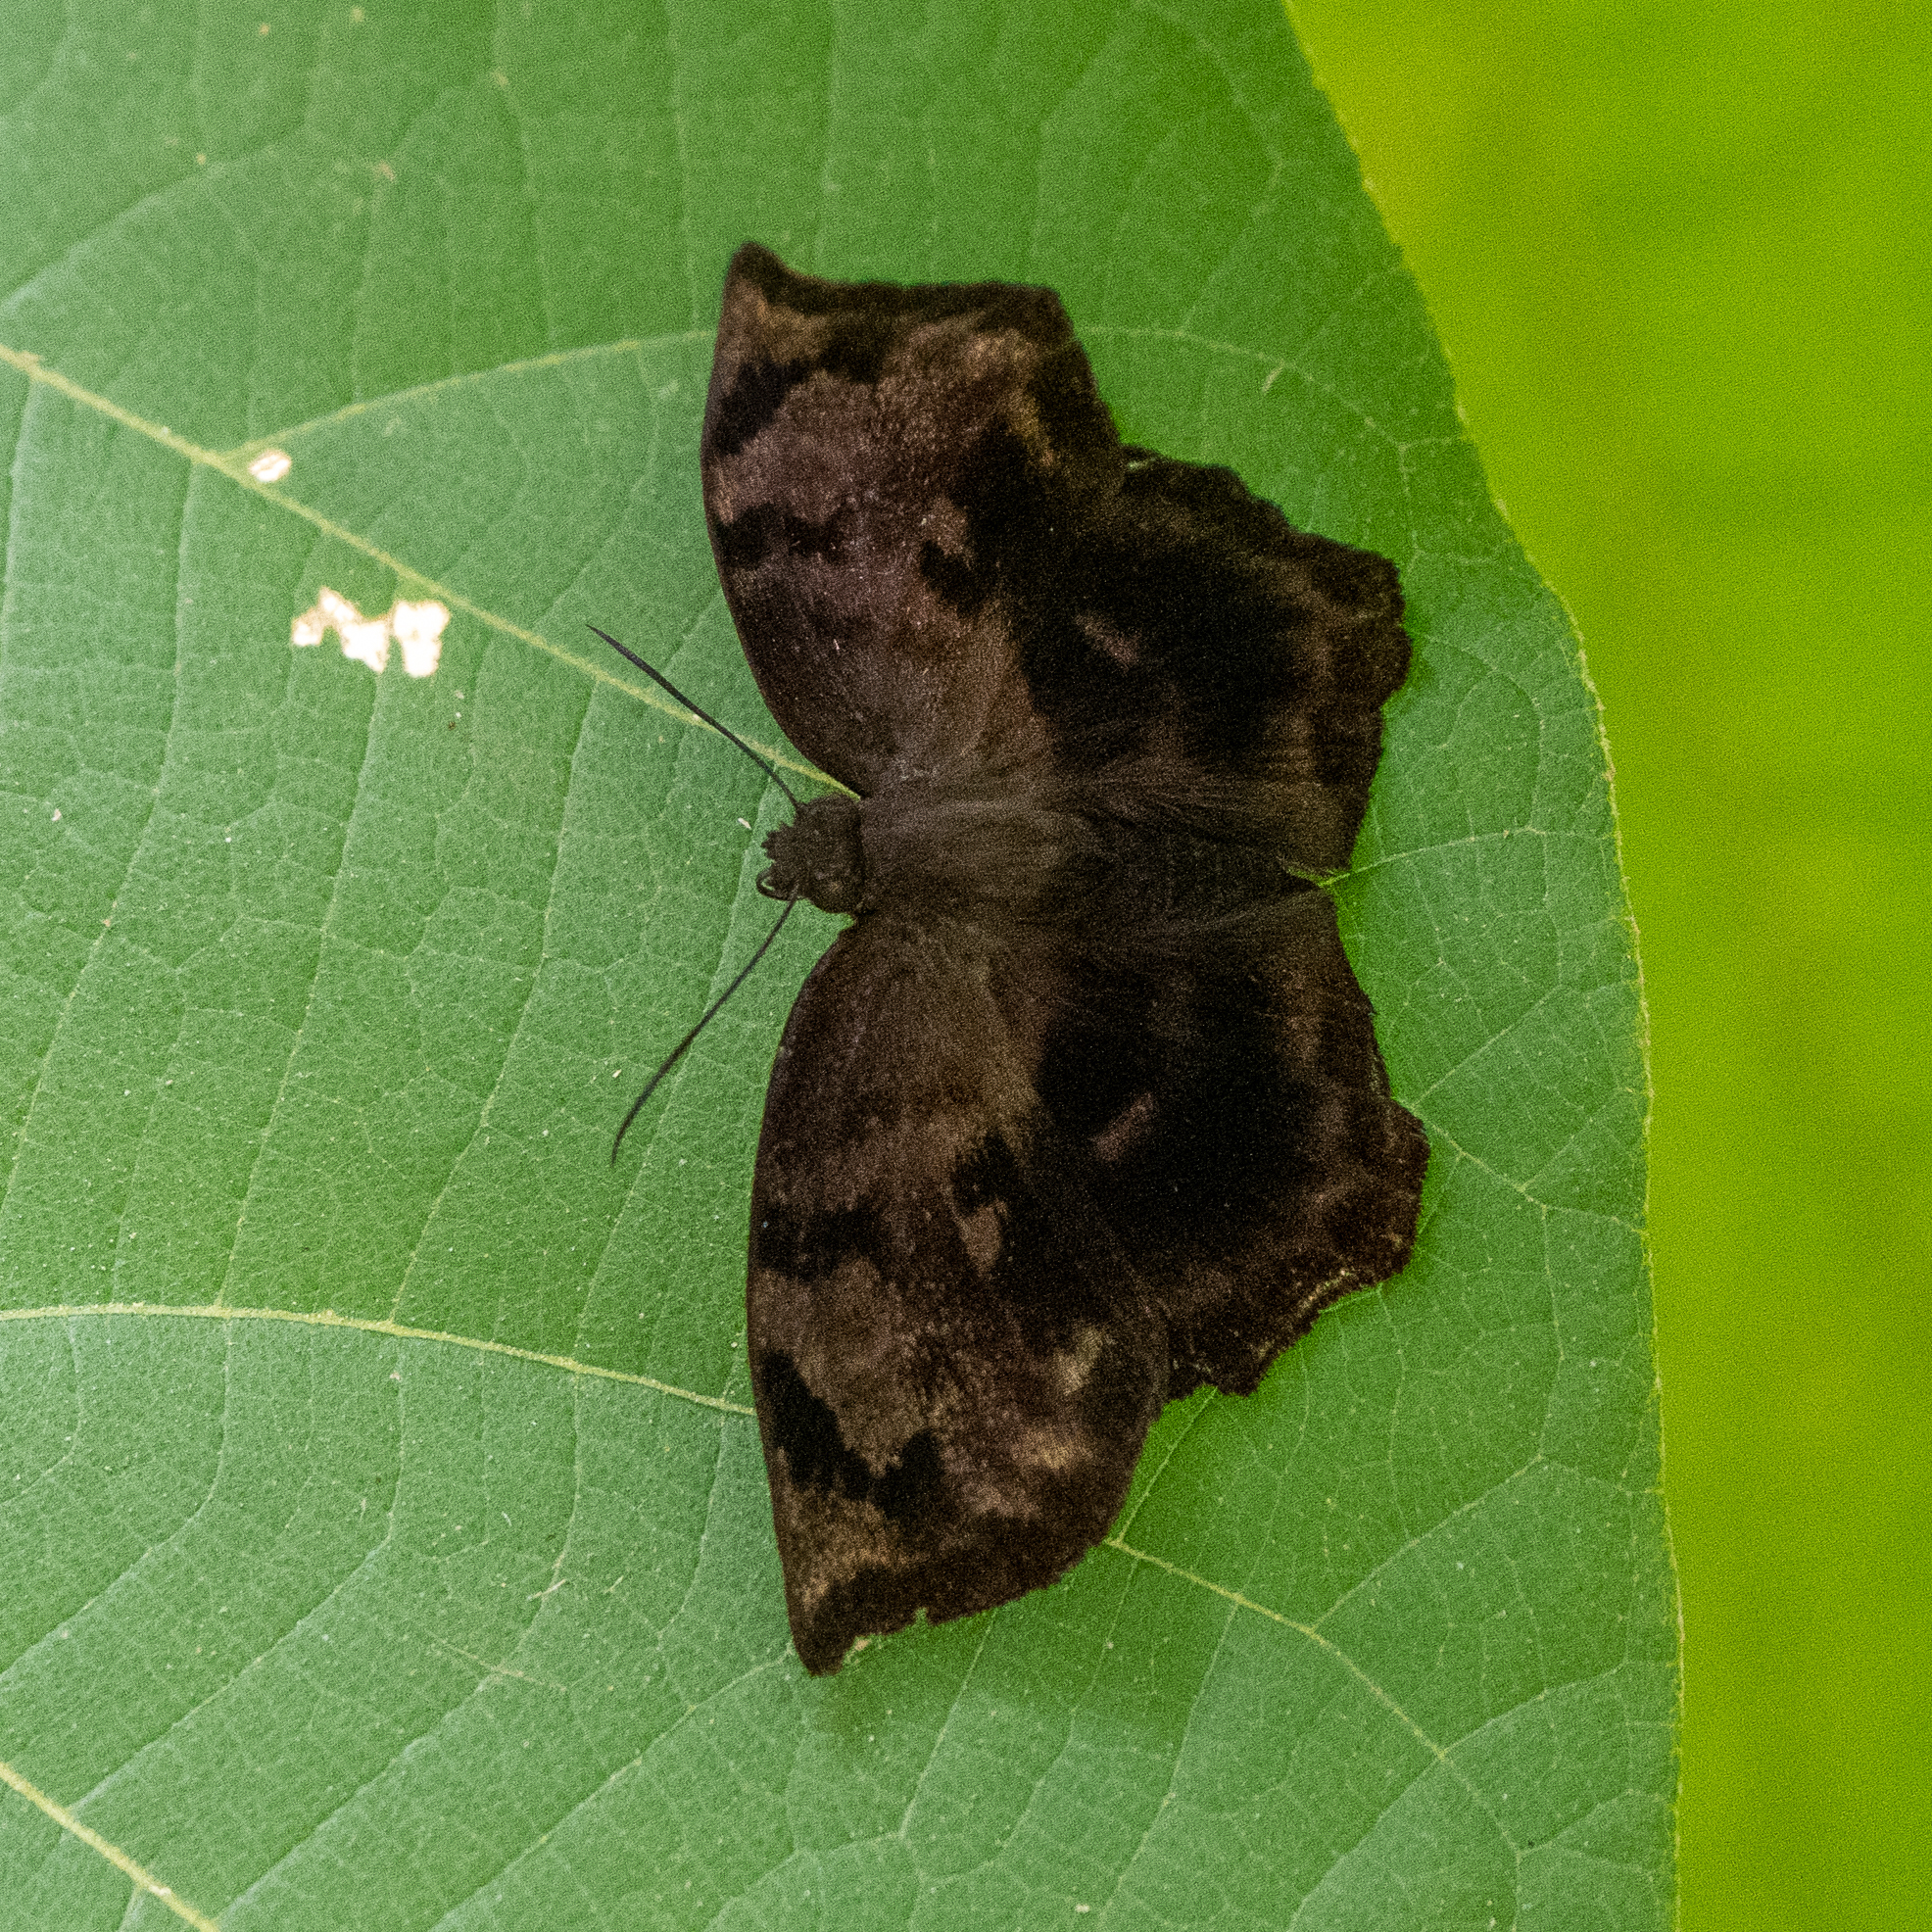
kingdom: Animalia
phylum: Arthropoda
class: Insecta
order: Lepidoptera
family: Hesperiidae
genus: Achlyodes
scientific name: Achlyodes busirus
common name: Giant sicklewing
